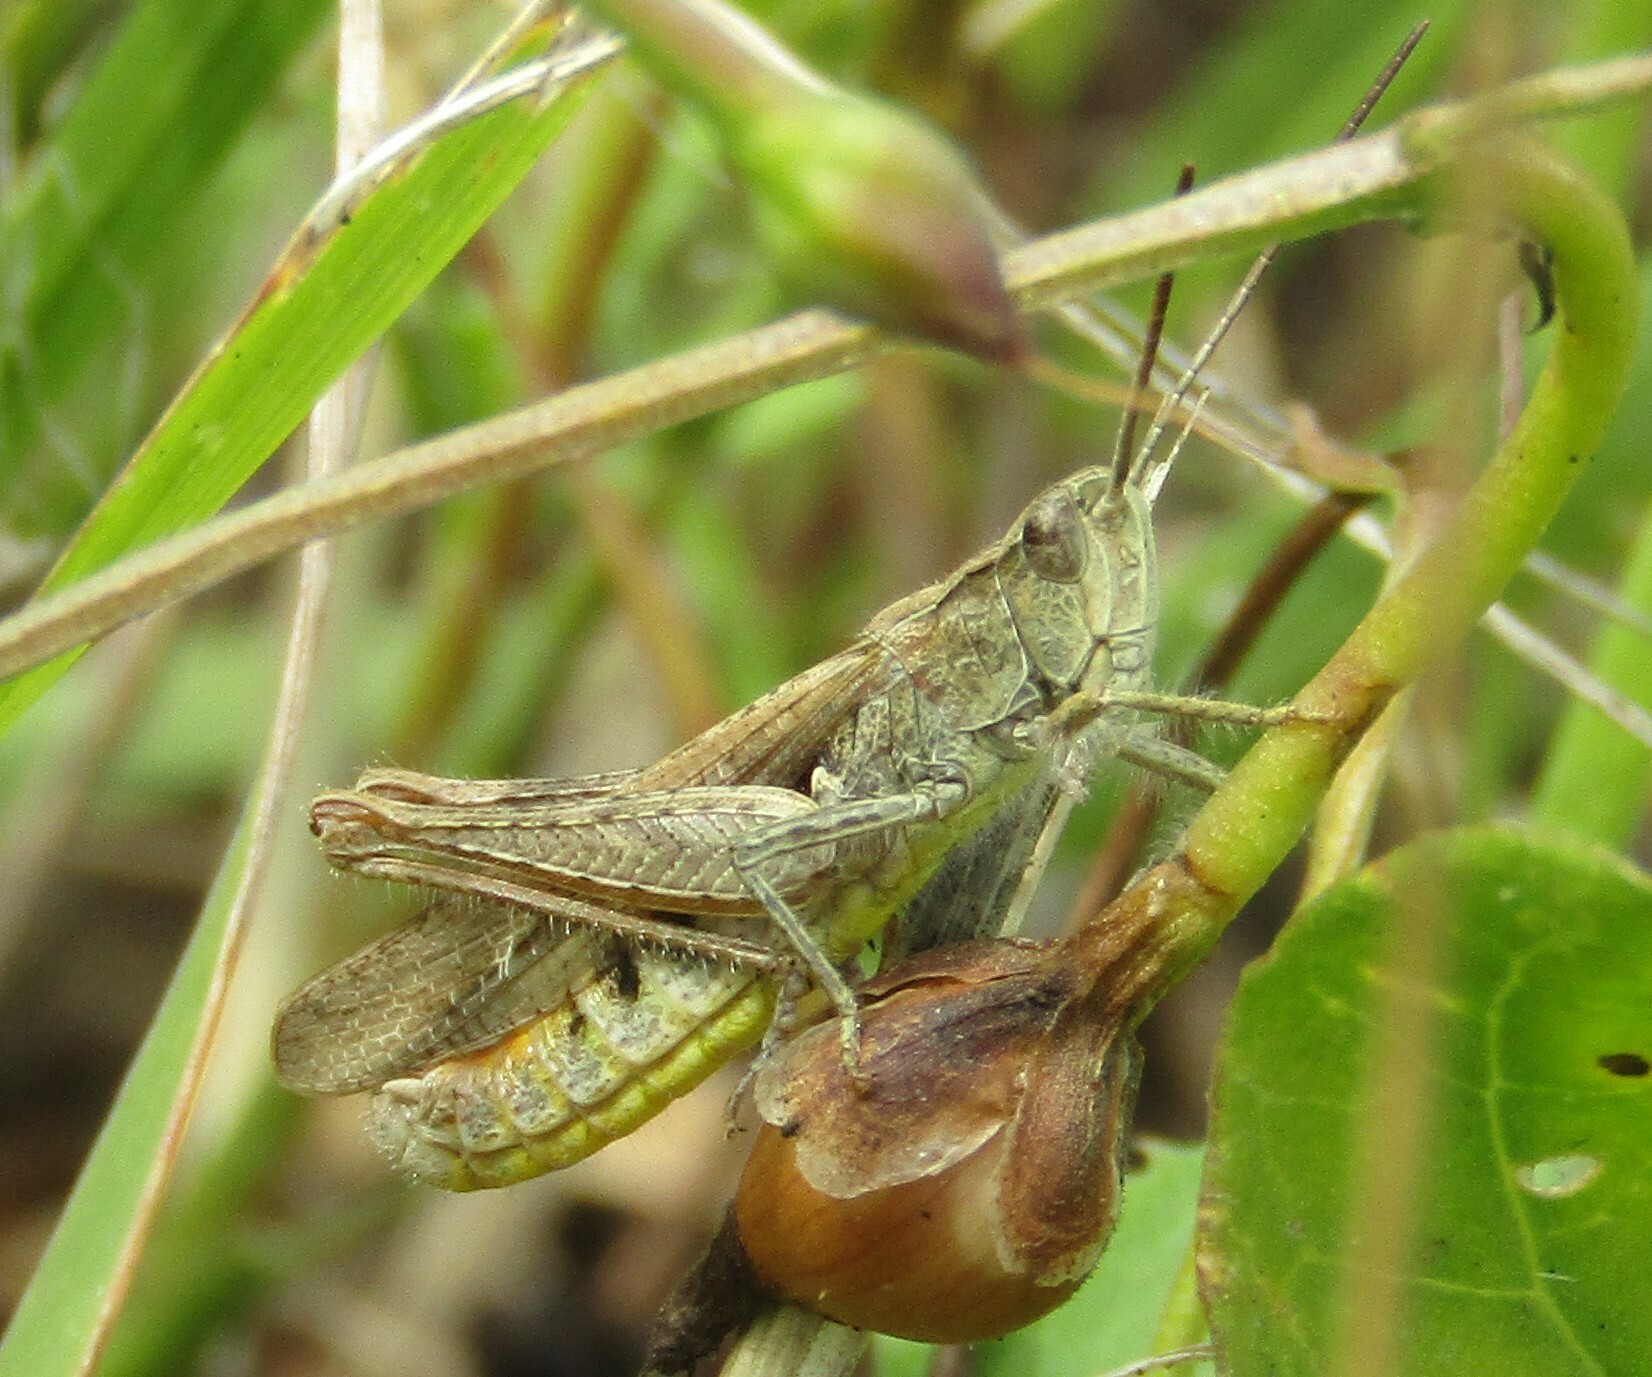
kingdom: Animalia
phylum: Arthropoda
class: Insecta
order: Orthoptera
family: Acrididae
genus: Chorthippus
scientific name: Chorthippus mollis
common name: Lesser field grasshopper
